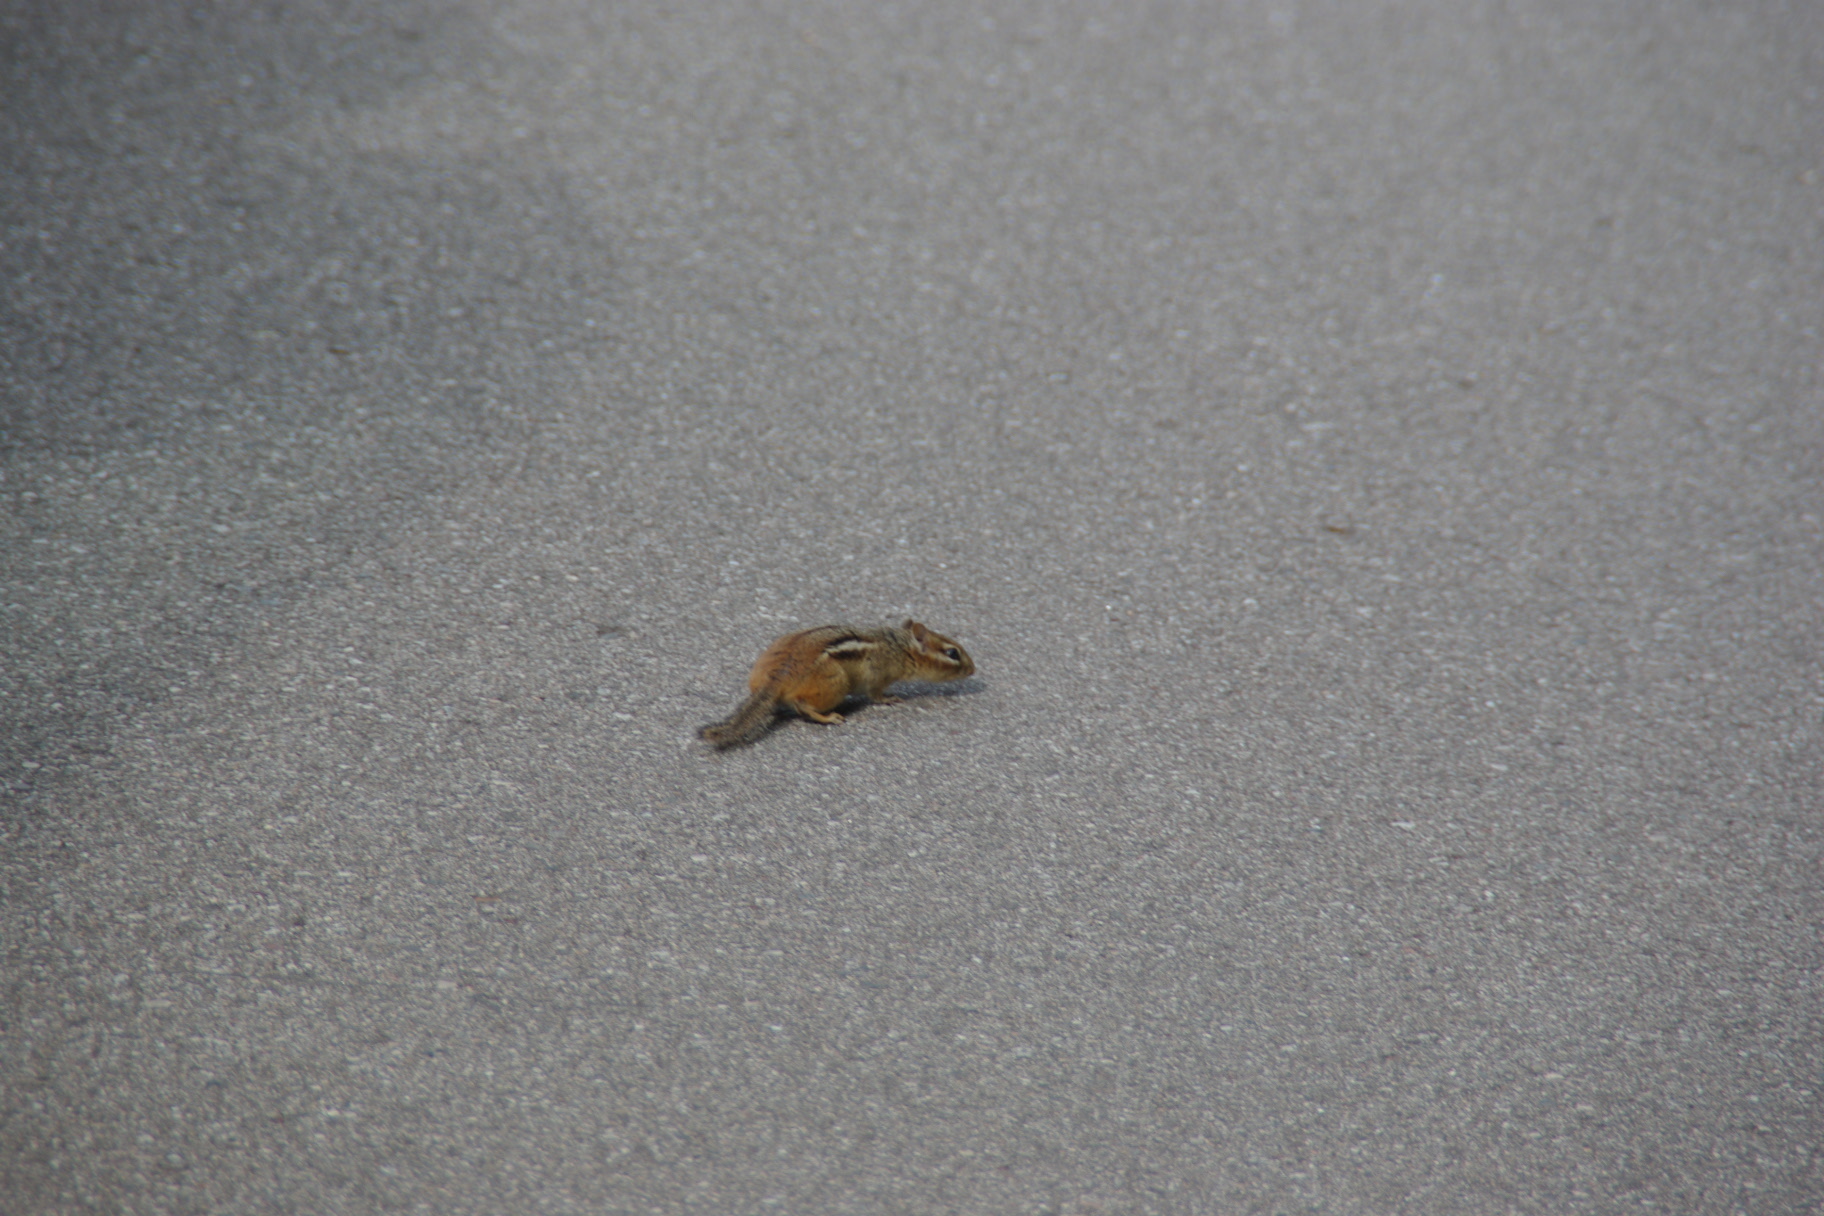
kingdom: Animalia
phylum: Chordata
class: Mammalia
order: Rodentia
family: Sciuridae
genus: Tamias
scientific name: Tamias striatus
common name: Eastern chipmunk
